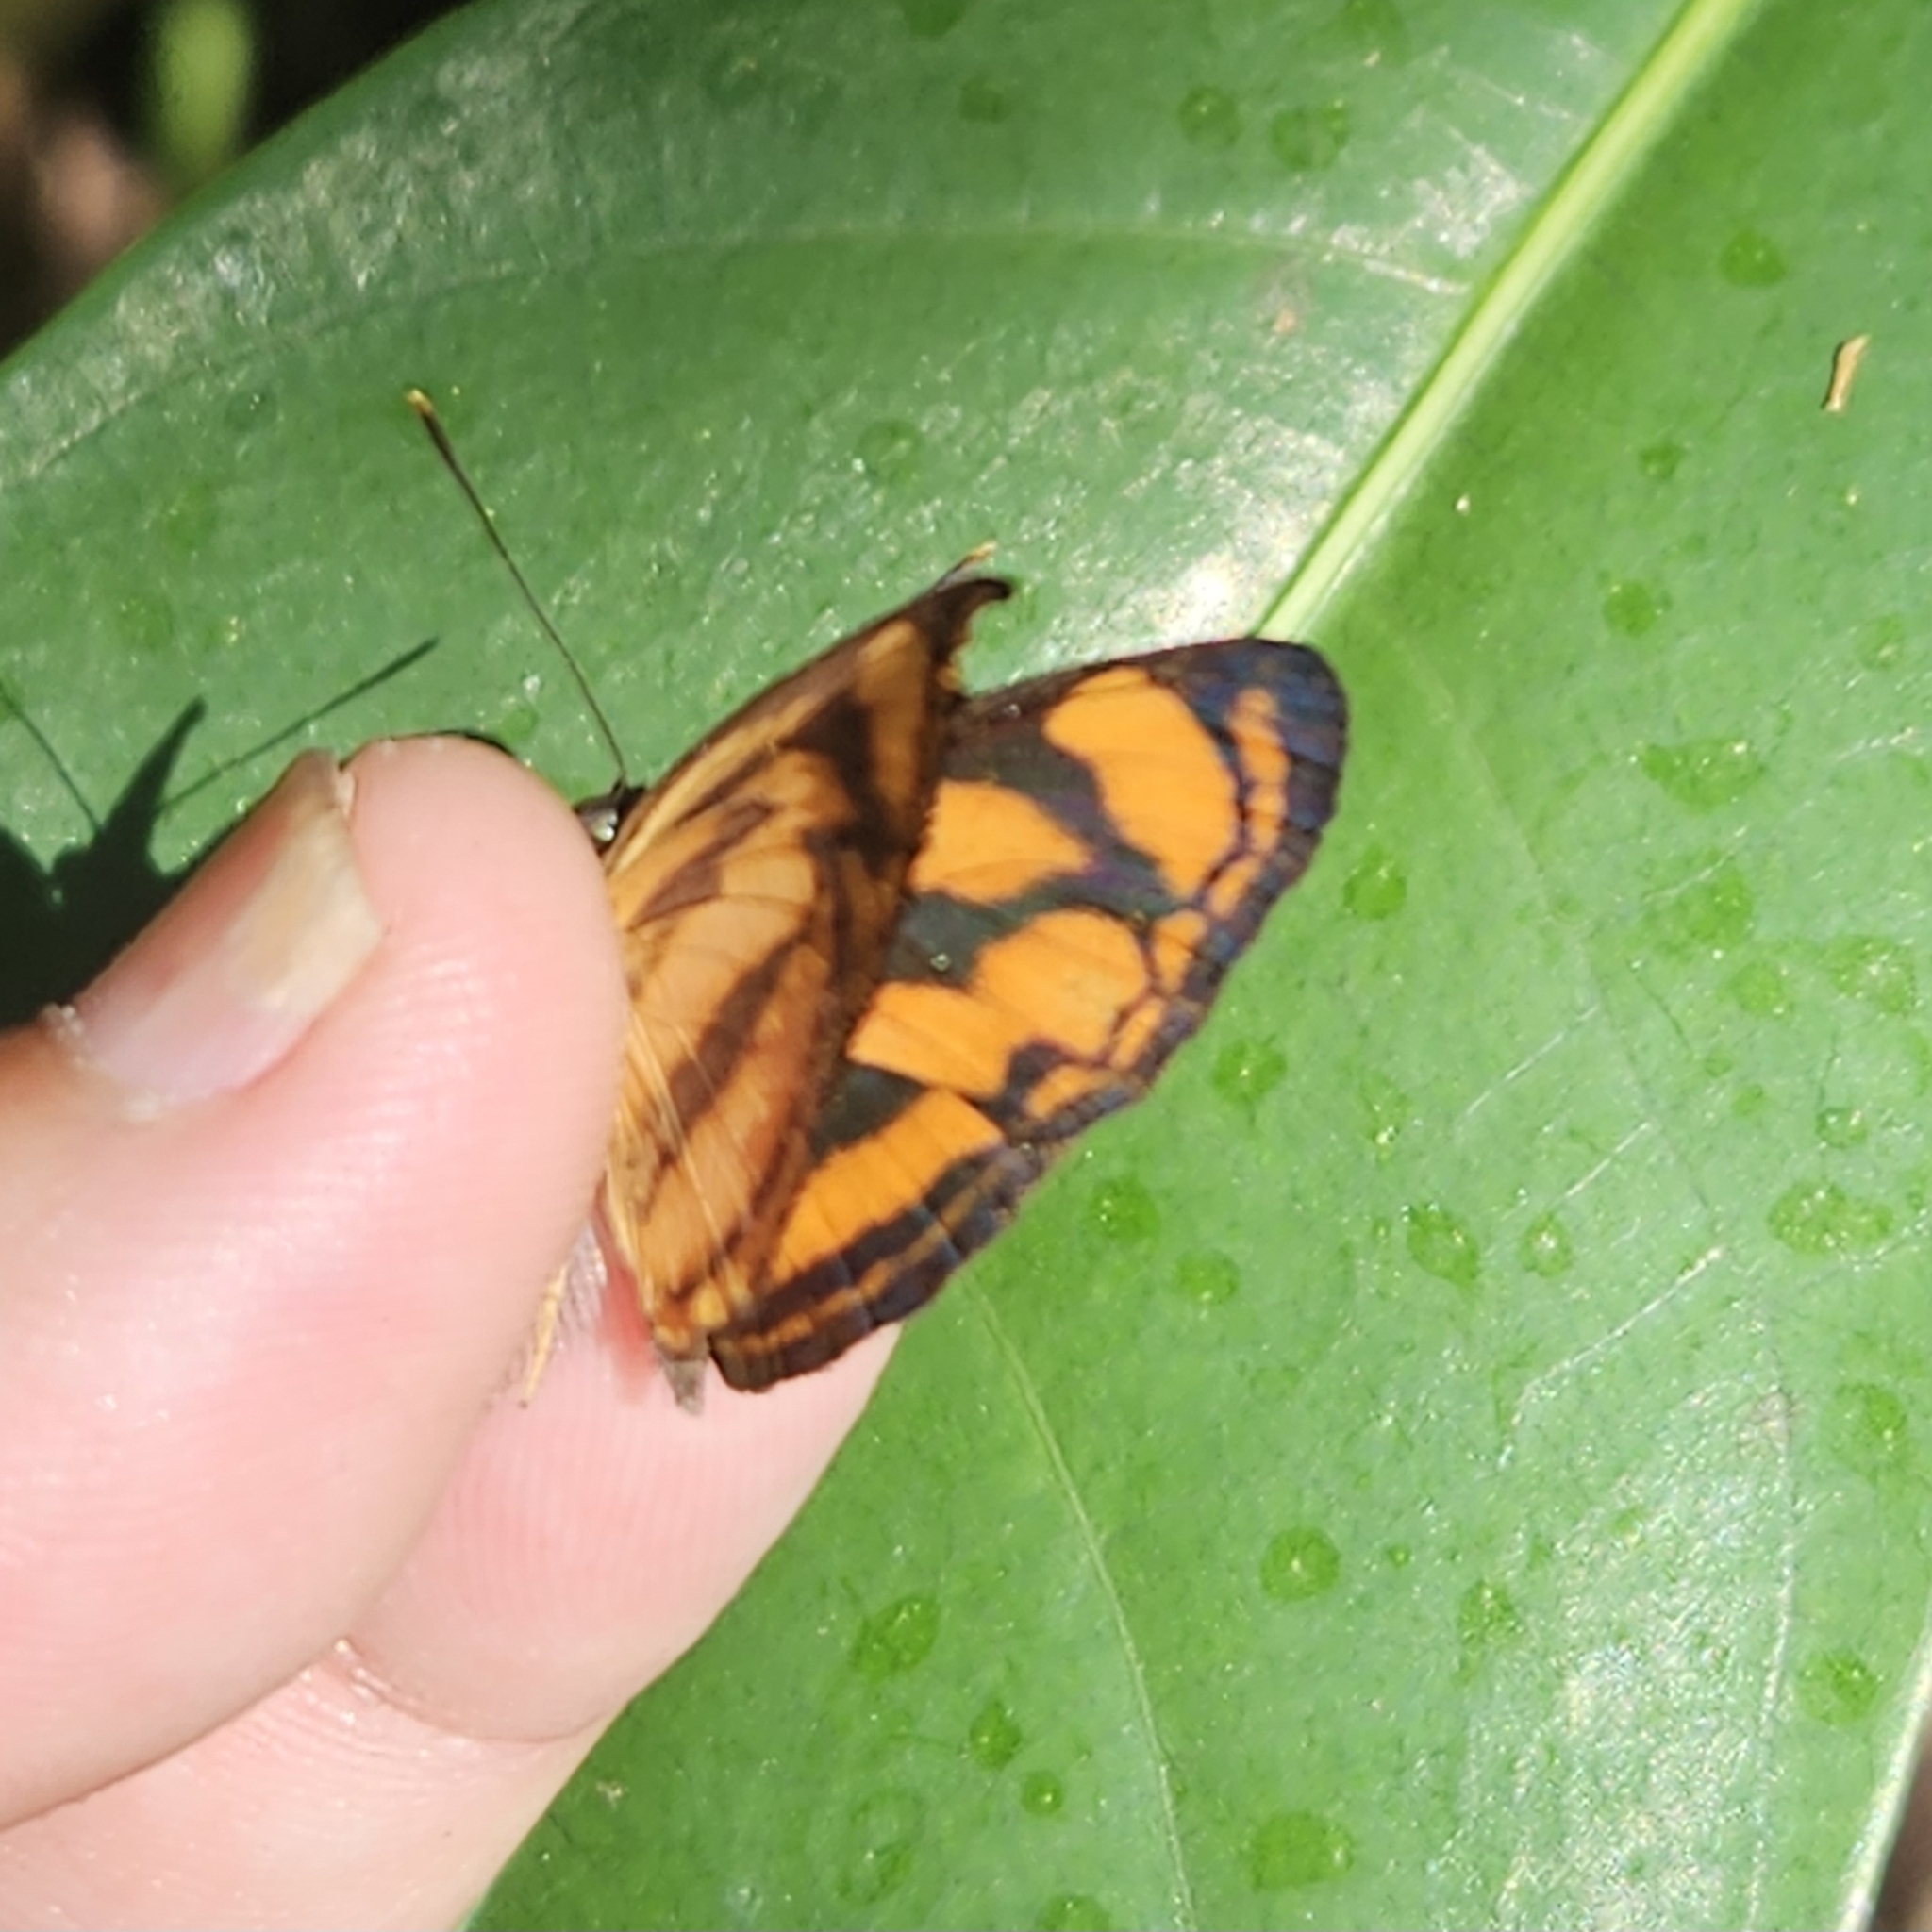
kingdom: Animalia
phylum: Arthropoda
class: Insecta
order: Lepidoptera
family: Nymphalidae
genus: Lasippa
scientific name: Lasippa tiga
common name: Malayan lascar
